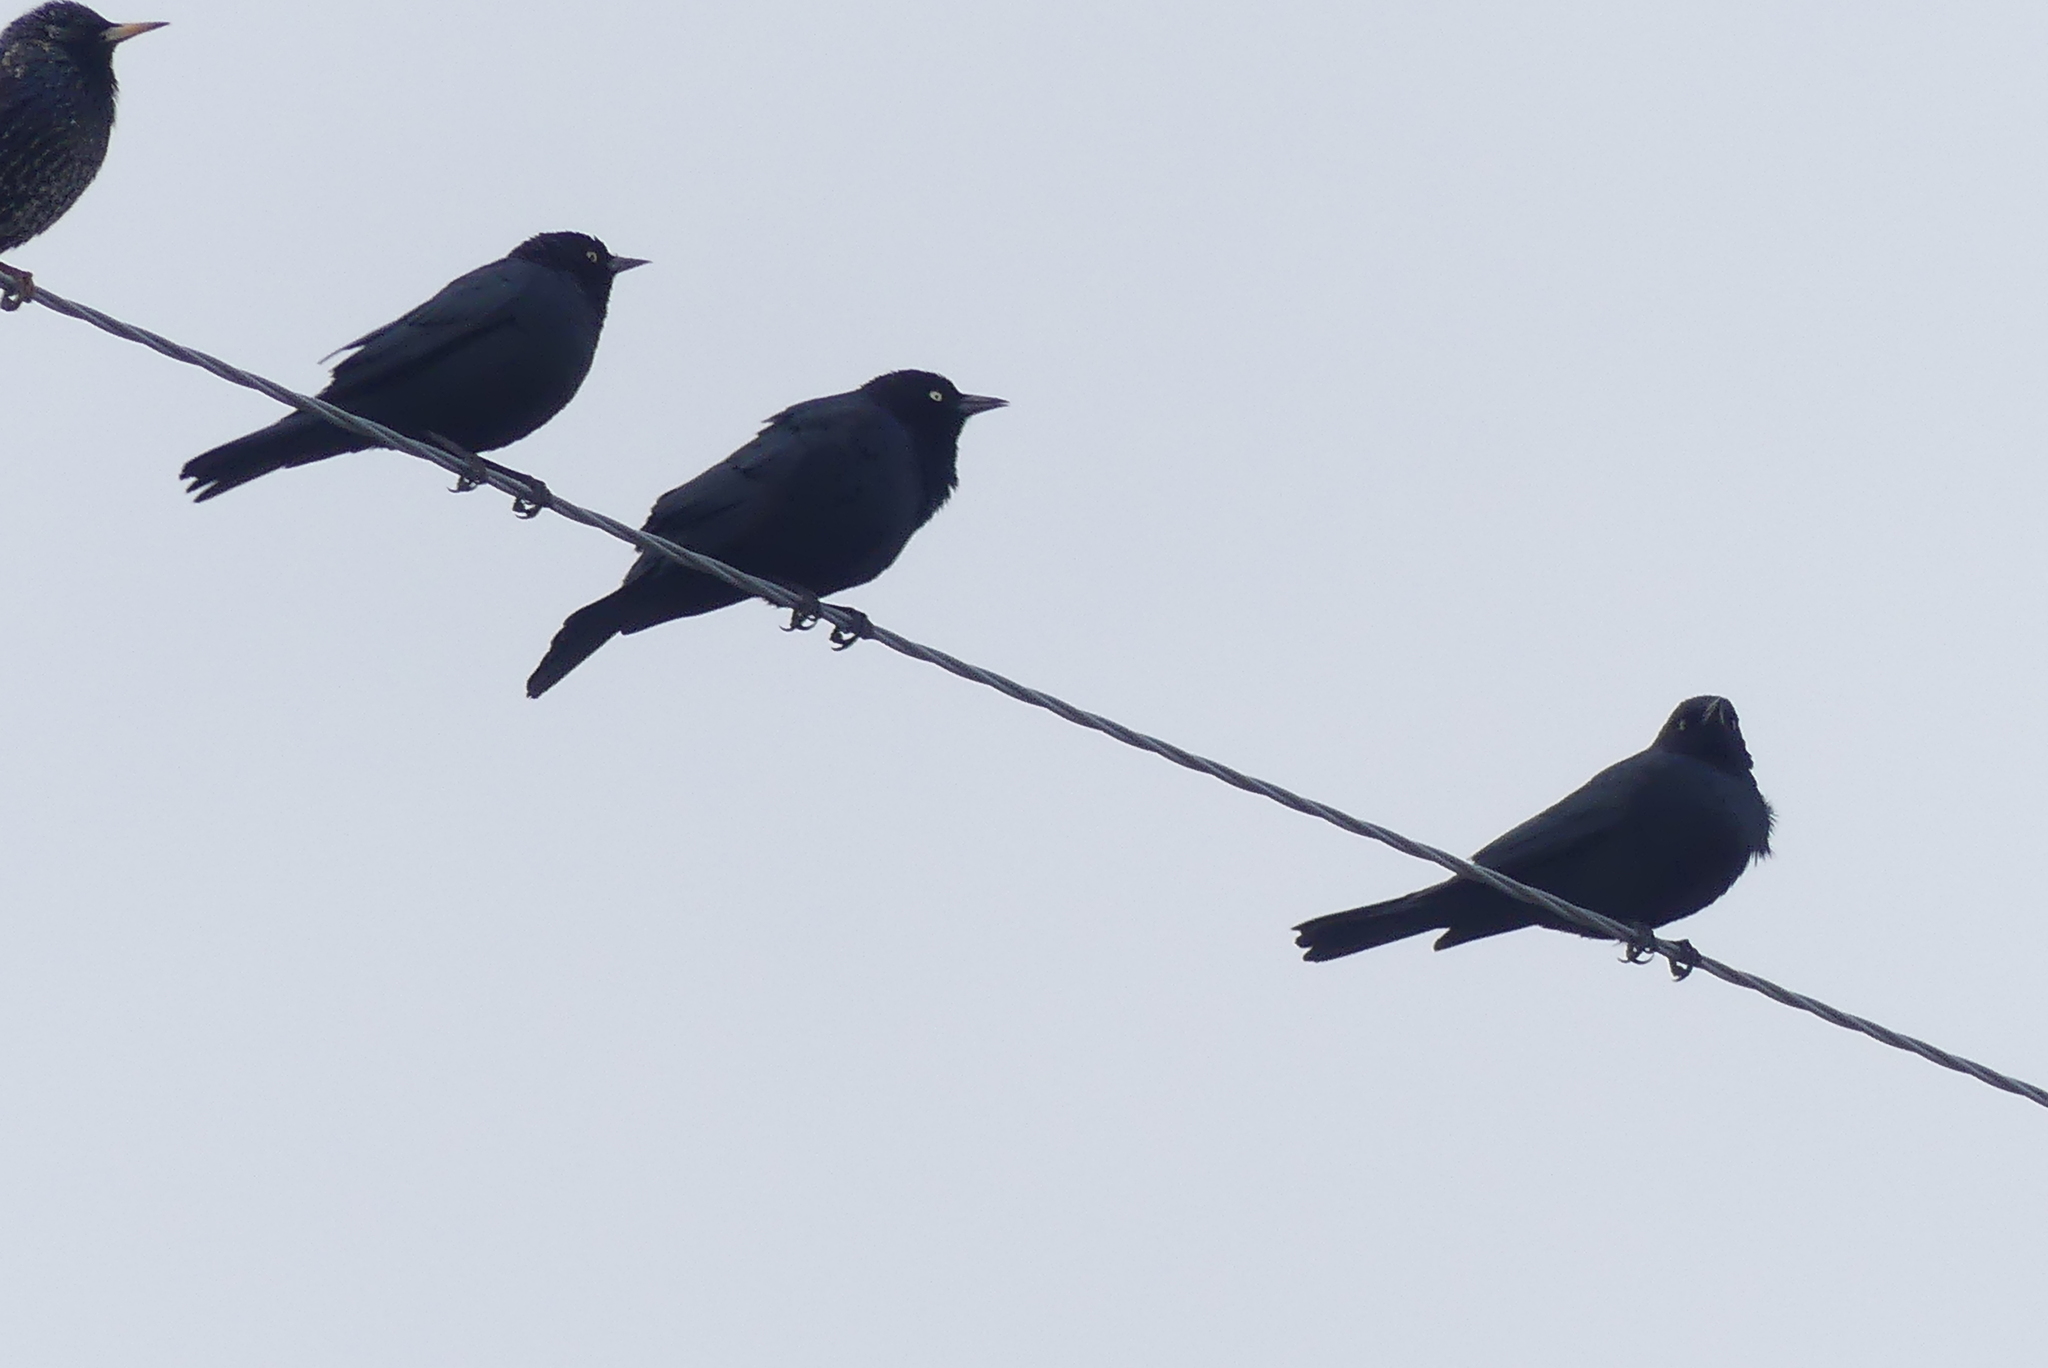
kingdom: Animalia
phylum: Chordata
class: Aves
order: Passeriformes
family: Icteridae
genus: Euphagus
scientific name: Euphagus cyanocephalus
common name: Brewer's blackbird
